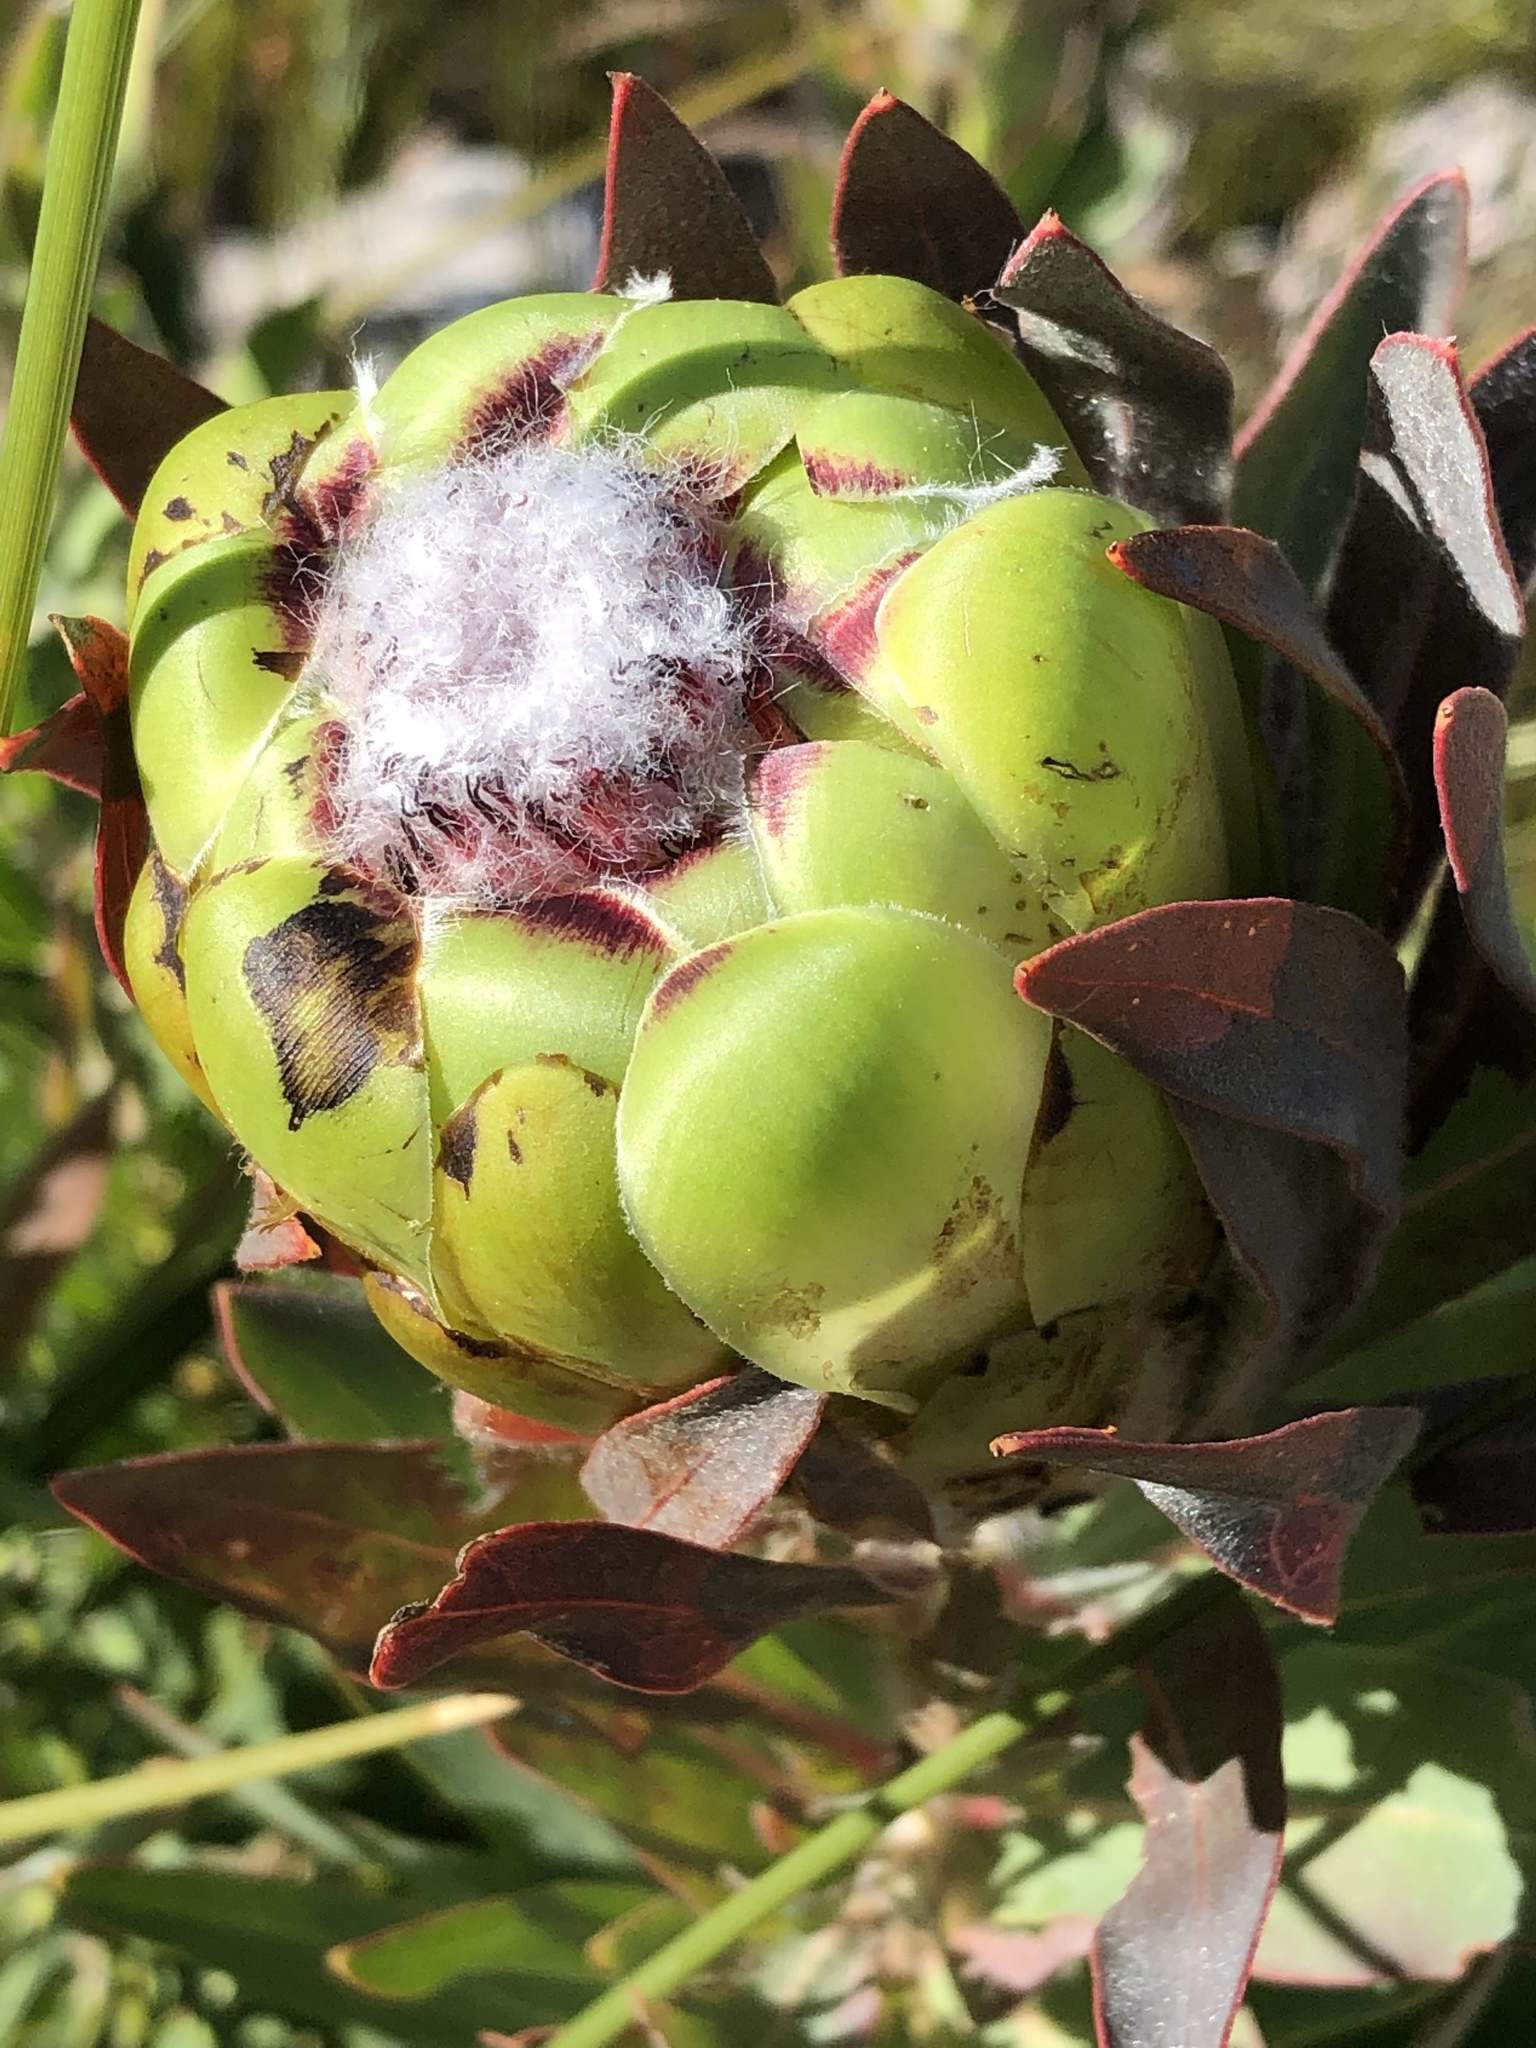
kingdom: Plantae
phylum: Tracheophyta
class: Magnoliopsida
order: Proteales
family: Proteaceae
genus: Protea
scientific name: Protea coronata
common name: Green sugarbush
